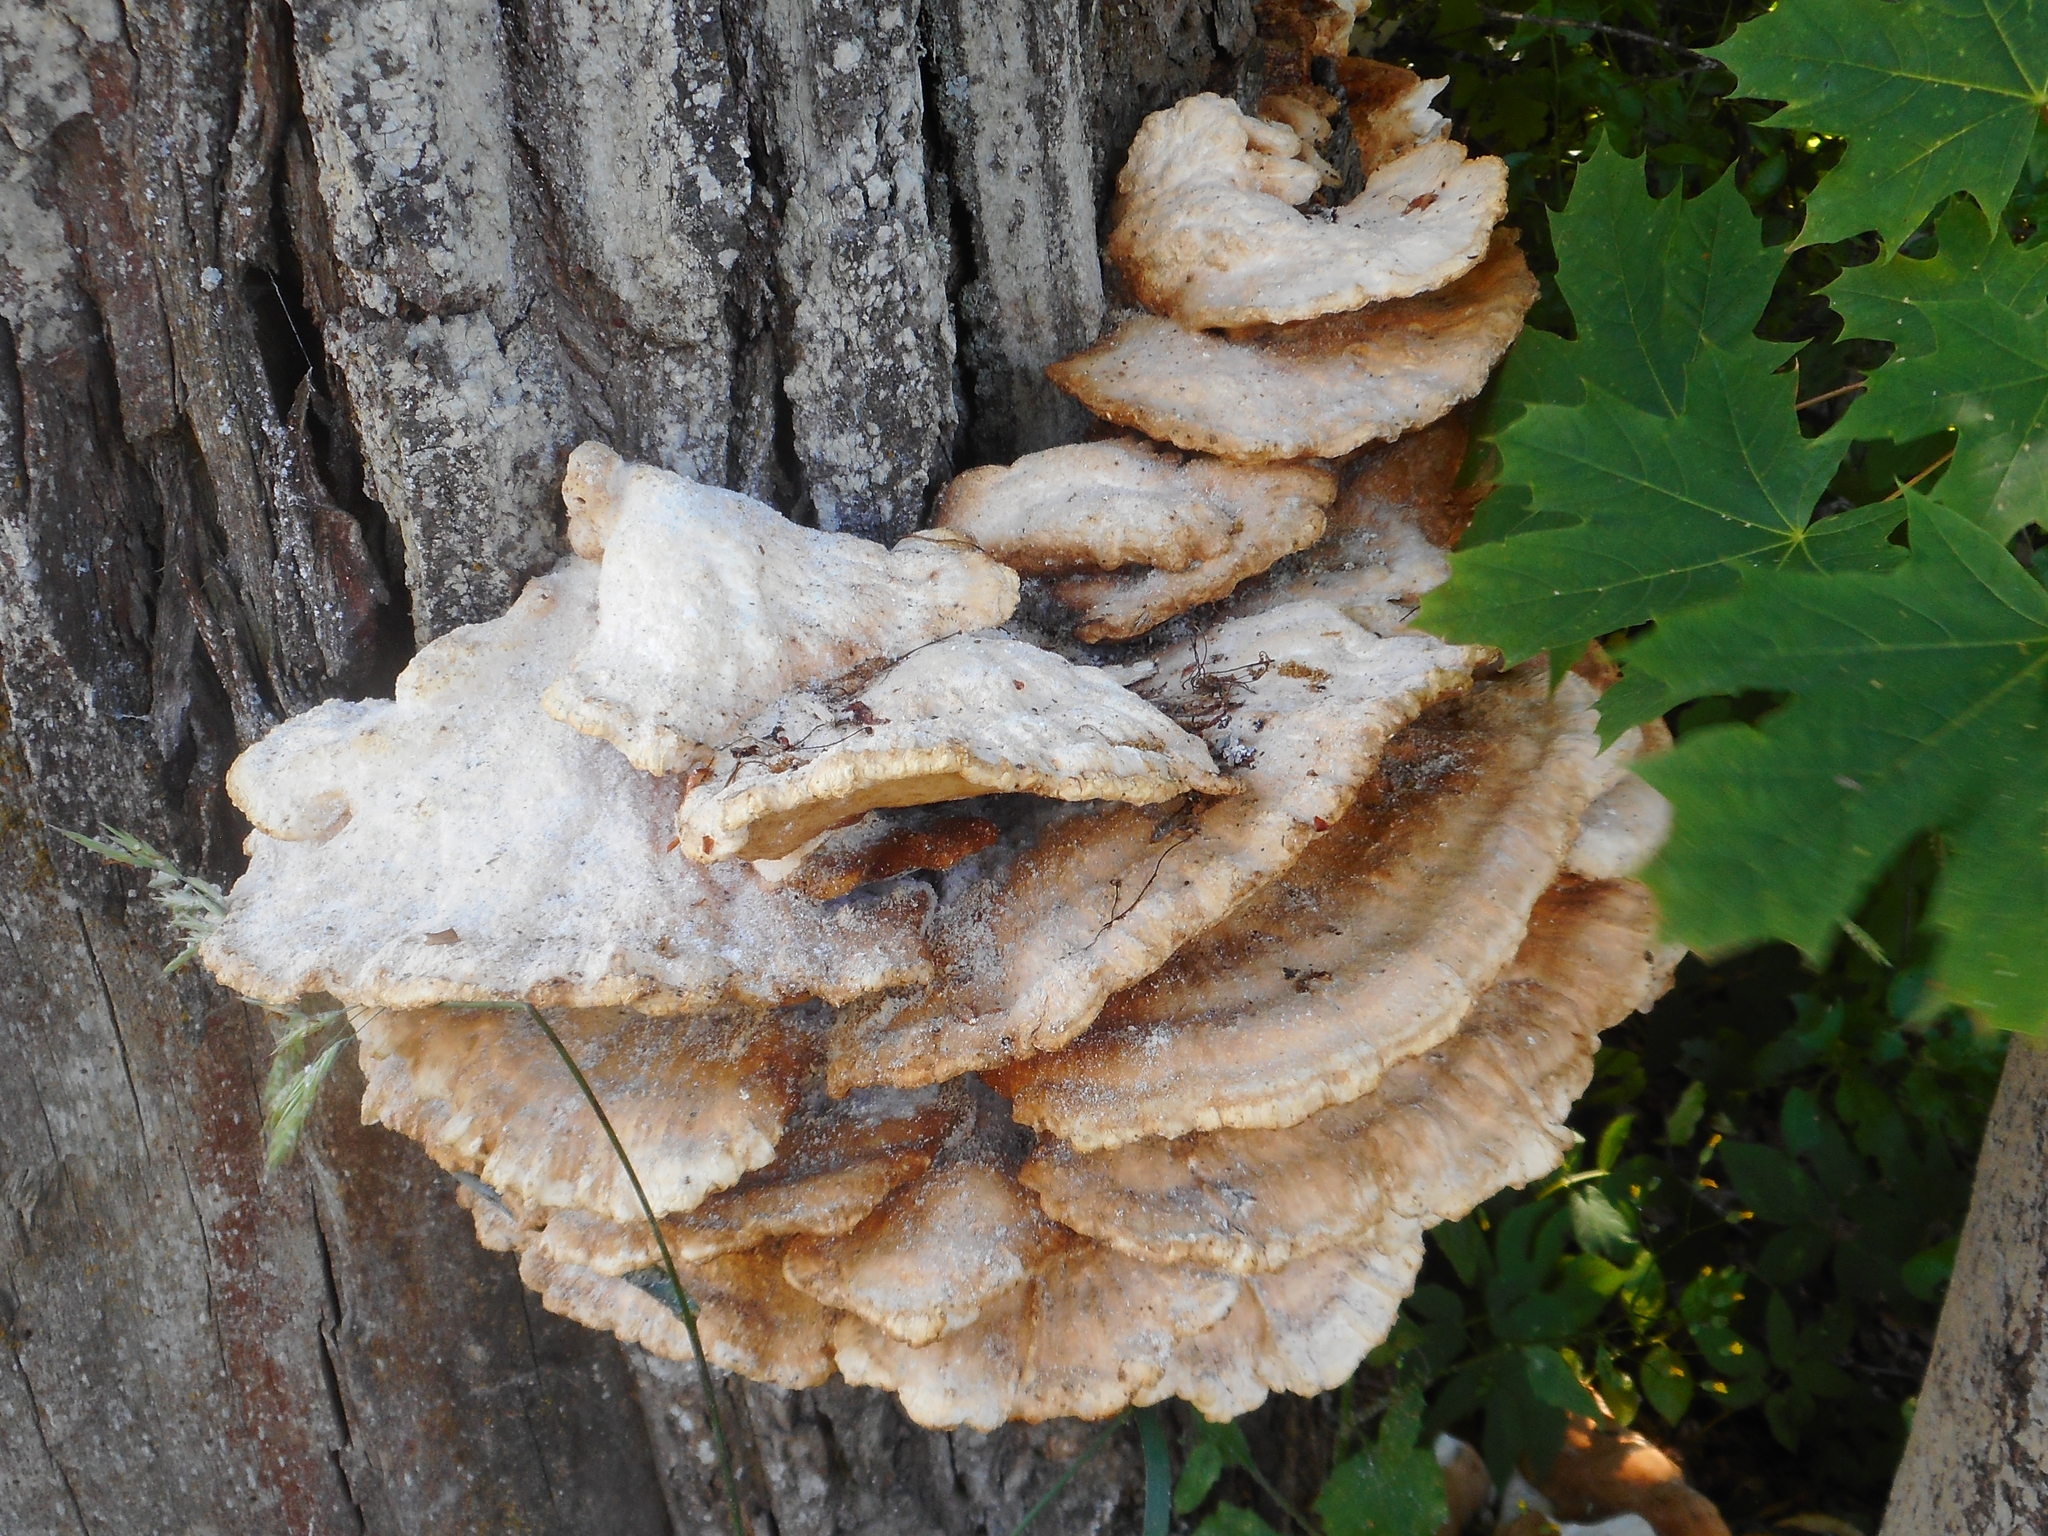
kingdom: Fungi
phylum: Basidiomycota
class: Agaricomycetes
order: Polyporales
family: Laetiporaceae
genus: Laetiporus
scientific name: Laetiporus sulphureus
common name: Chicken of the woods
